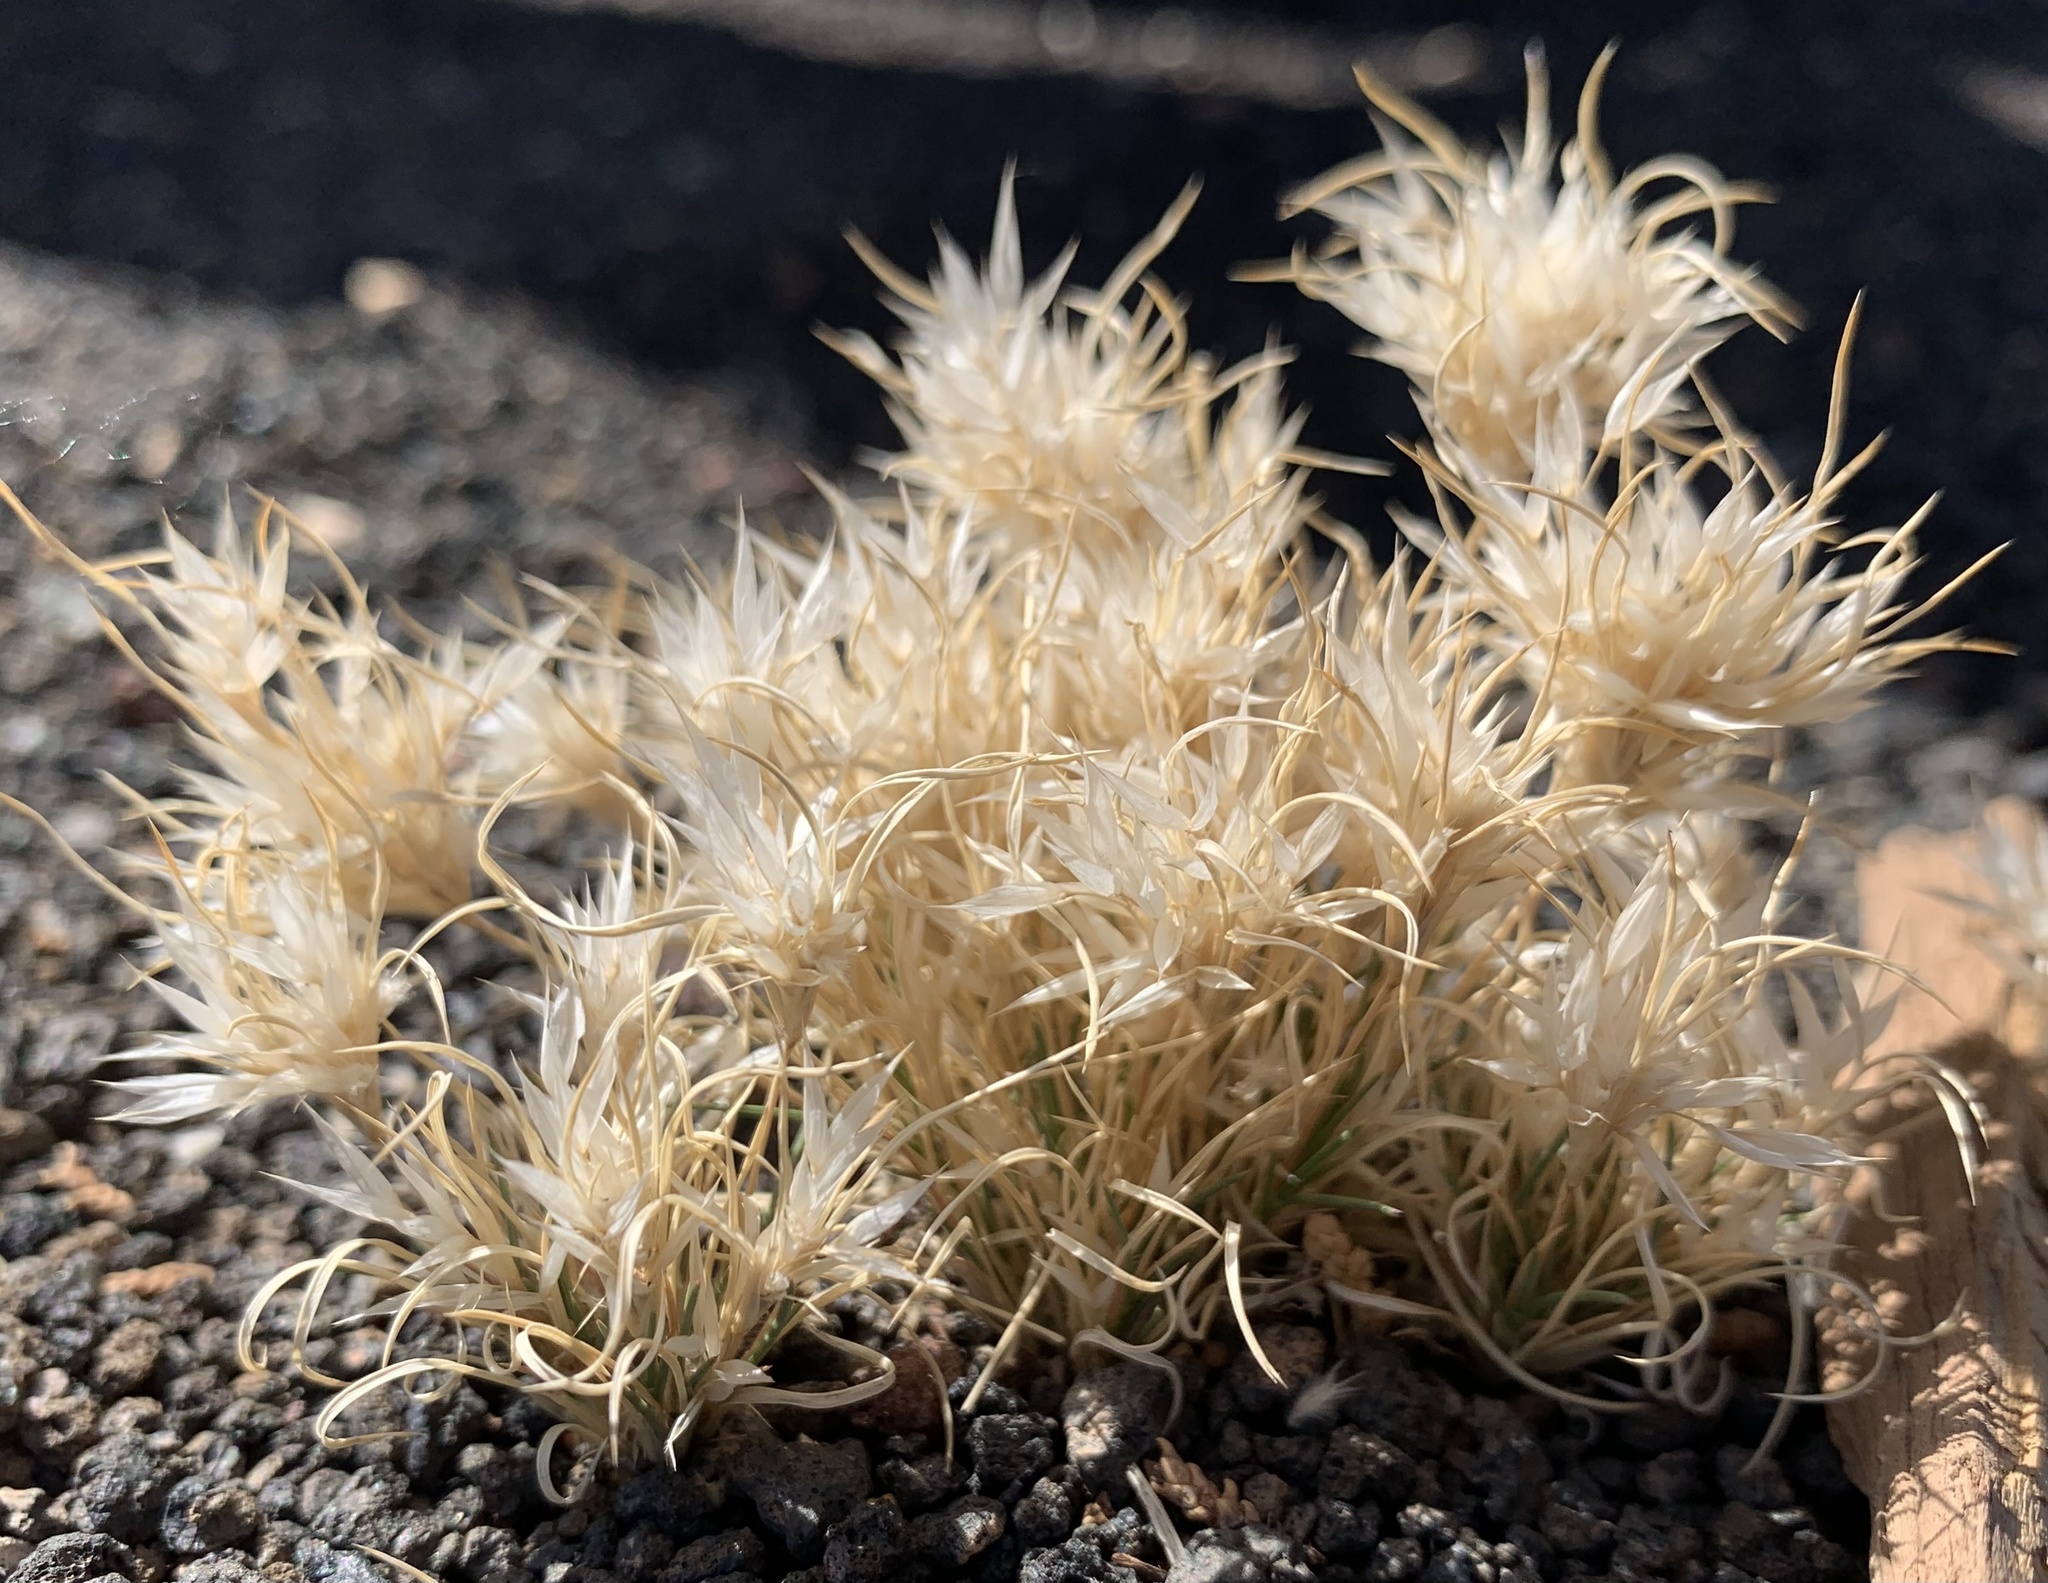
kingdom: Plantae
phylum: Tracheophyta
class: Liliopsida
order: Poales
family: Poaceae
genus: Dasyochloa
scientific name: Dasyochloa pulchella
